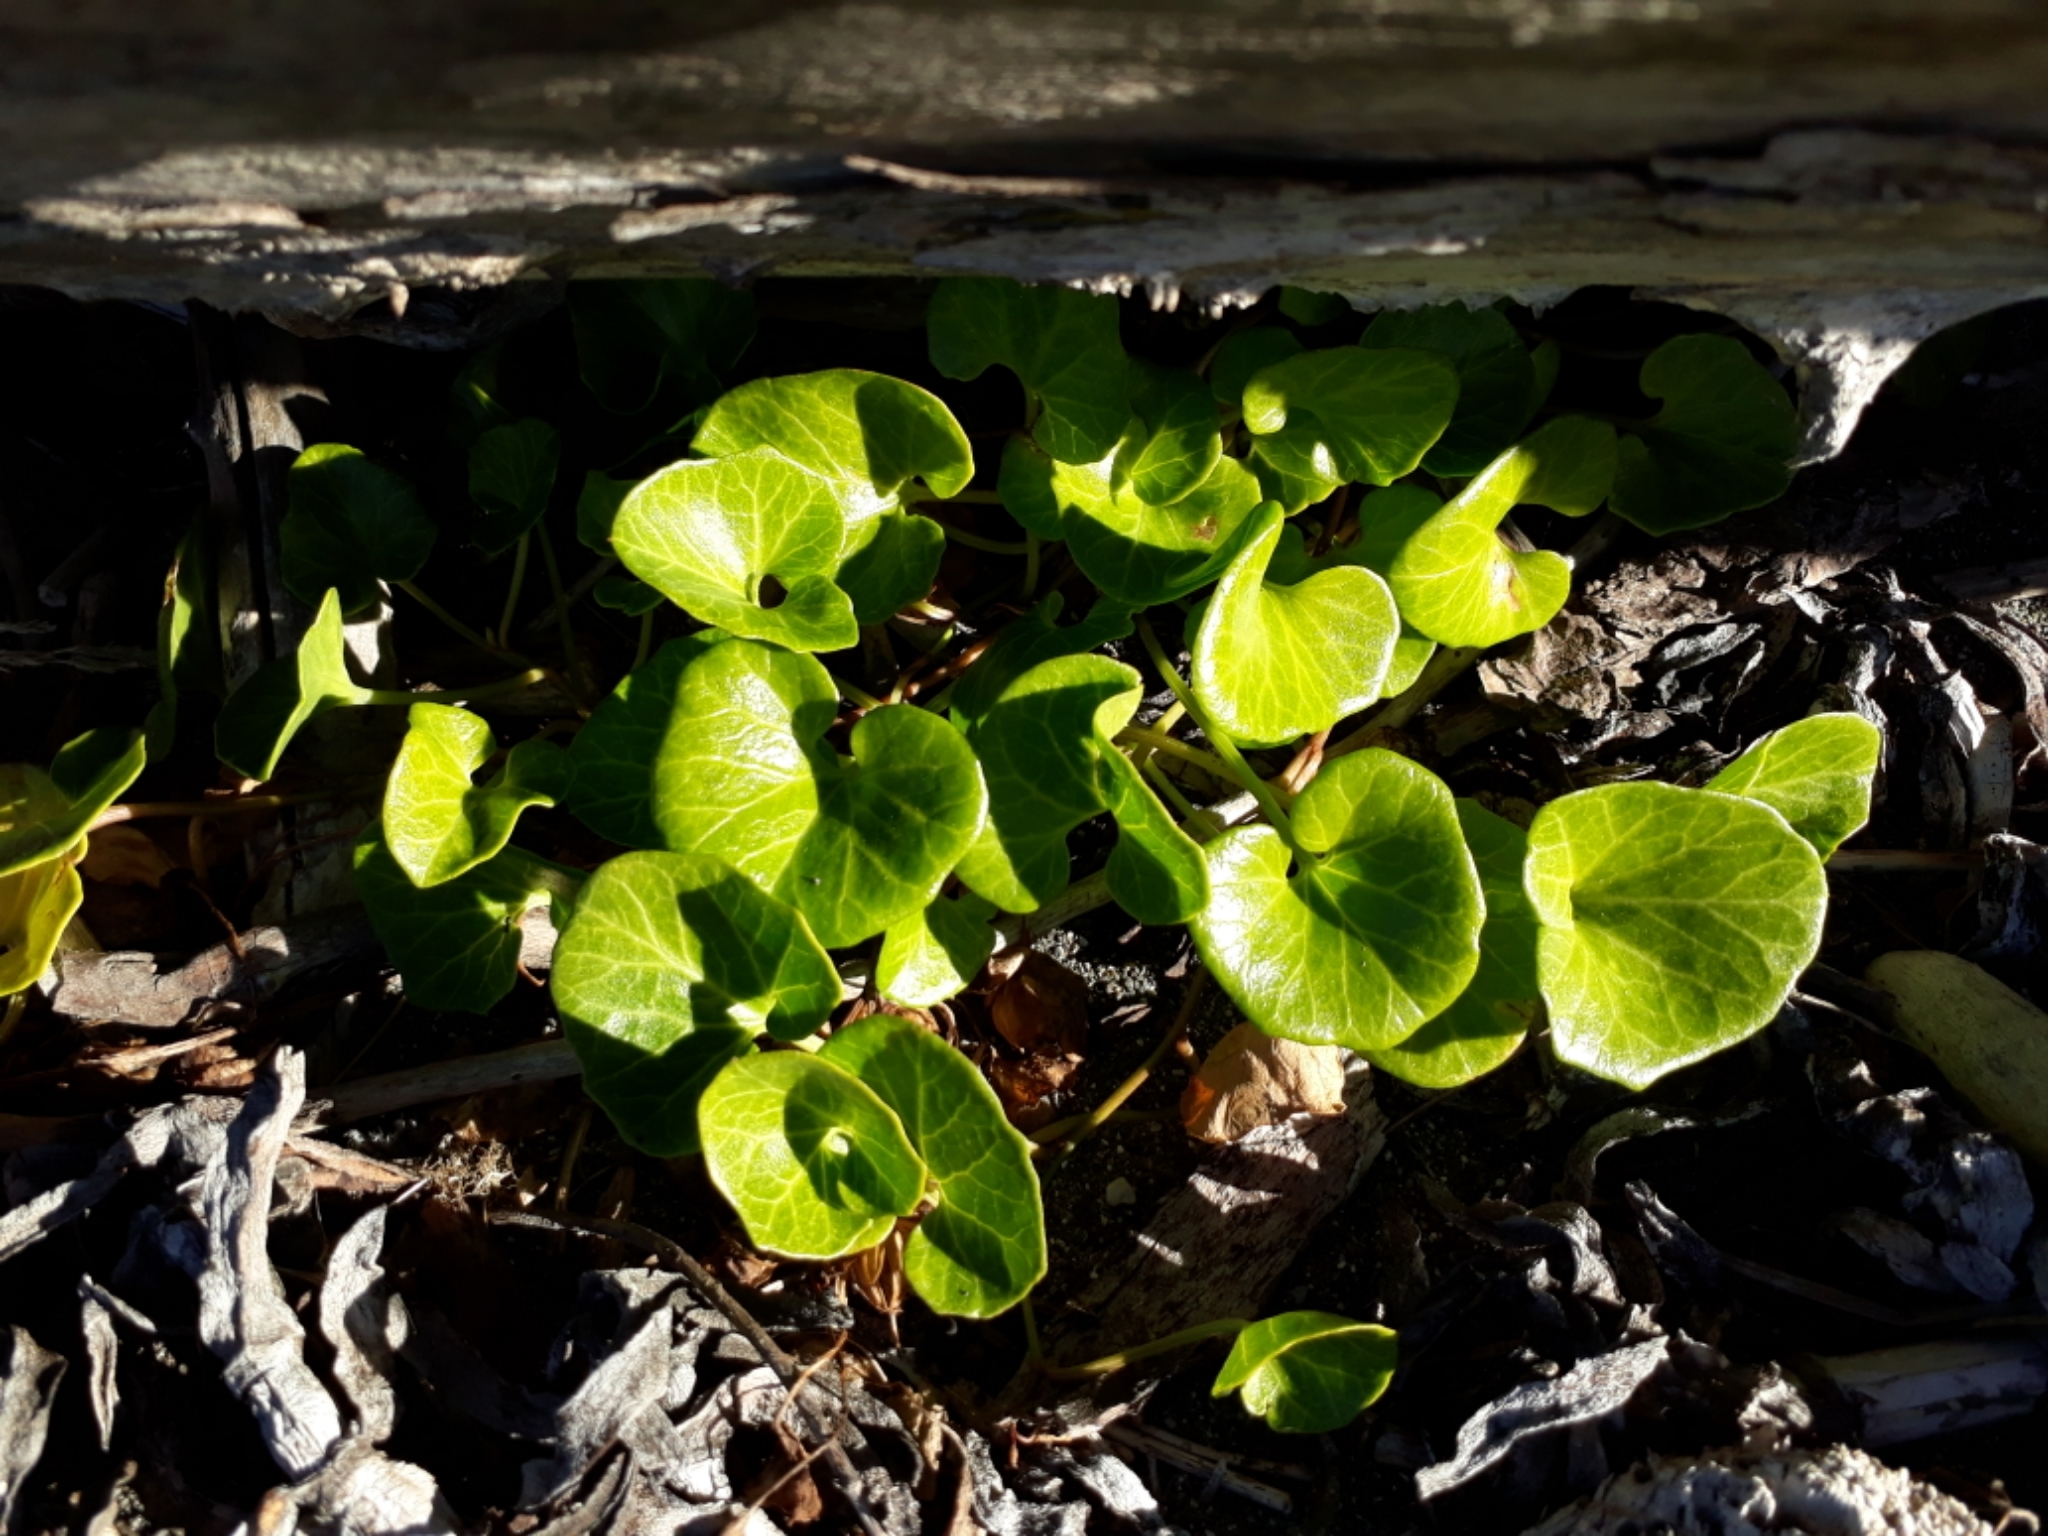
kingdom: Plantae
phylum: Tracheophyta
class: Magnoliopsida
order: Solanales
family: Convolvulaceae
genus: Calystegia
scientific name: Calystegia soldanella
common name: Sea bindweed
